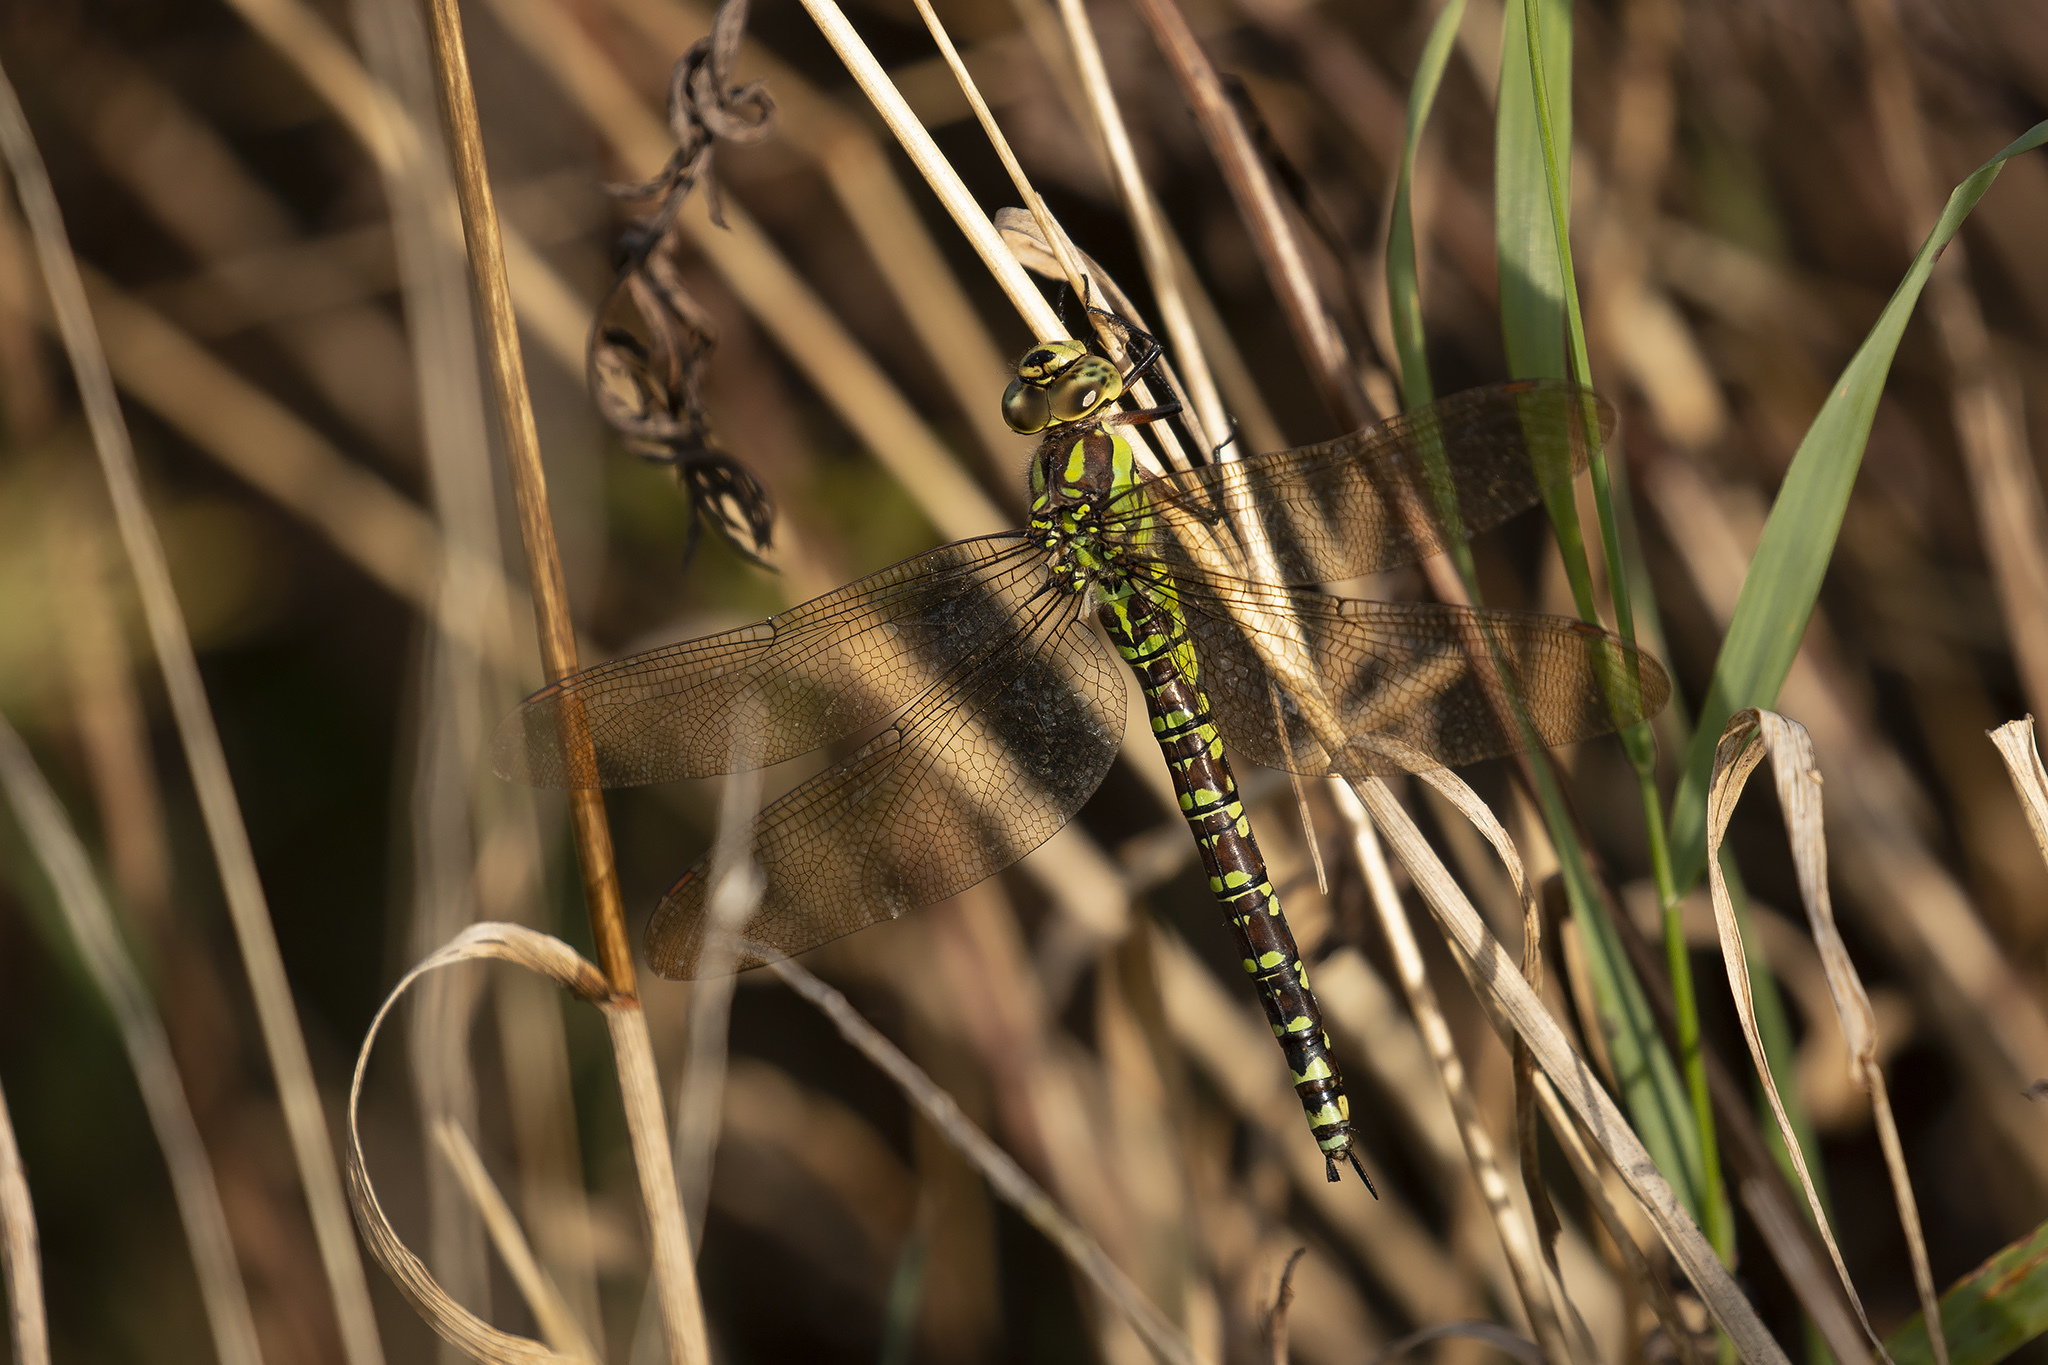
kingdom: Animalia
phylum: Arthropoda
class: Insecta
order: Odonata
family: Aeshnidae
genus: Aeshna
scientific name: Aeshna cyanea
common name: Southern hawker
